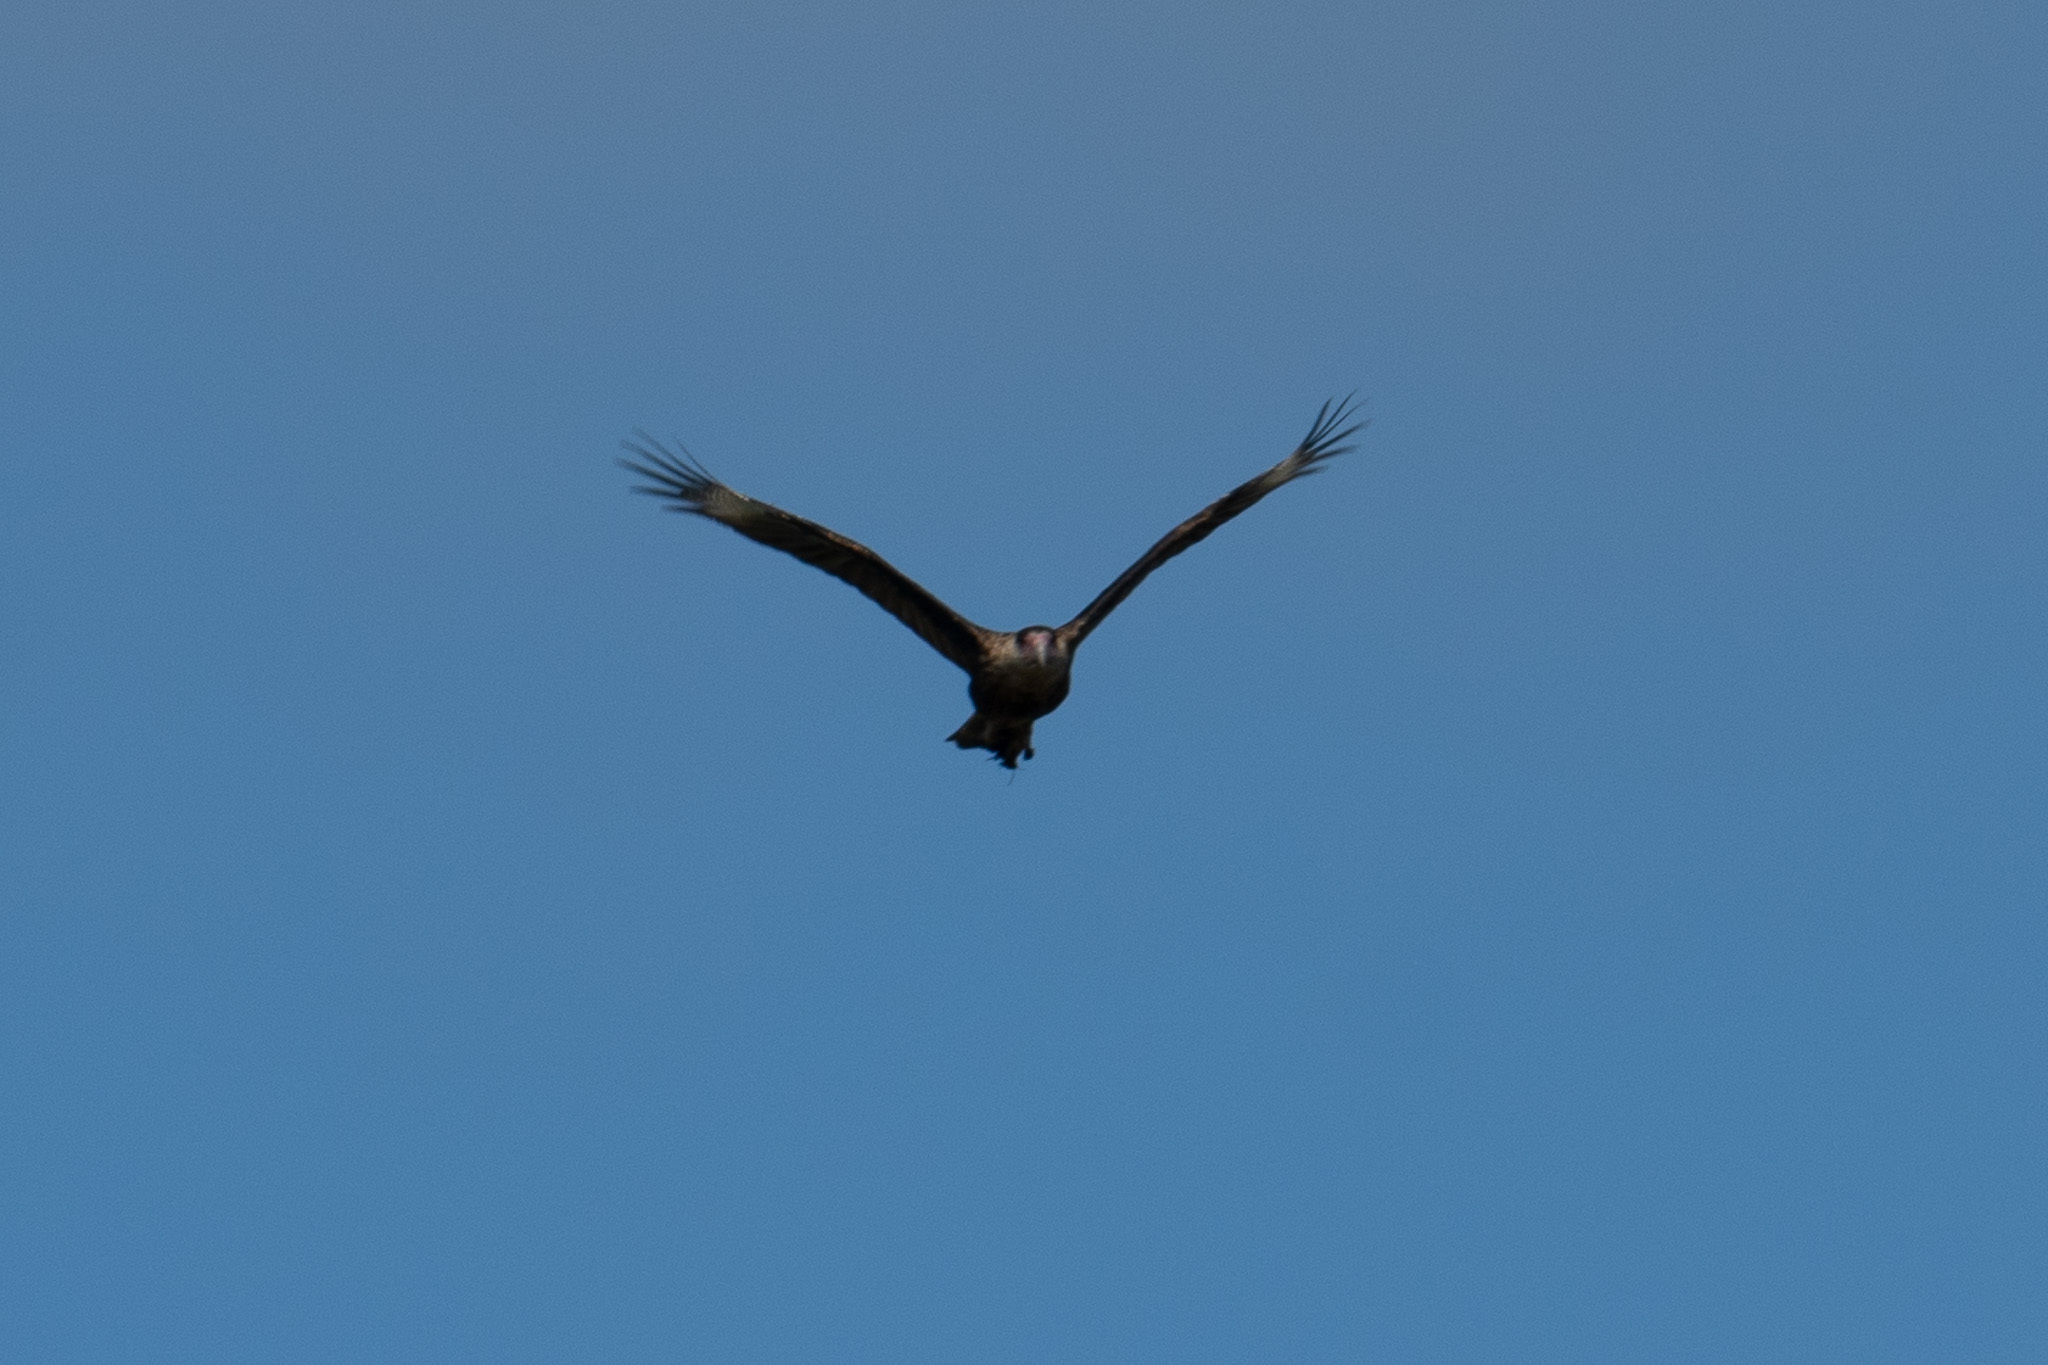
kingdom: Animalia
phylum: Chordata
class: Aves
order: Falconiformes
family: Falconidae
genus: Caracara
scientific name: Caracara plancus
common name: Southern caracara
